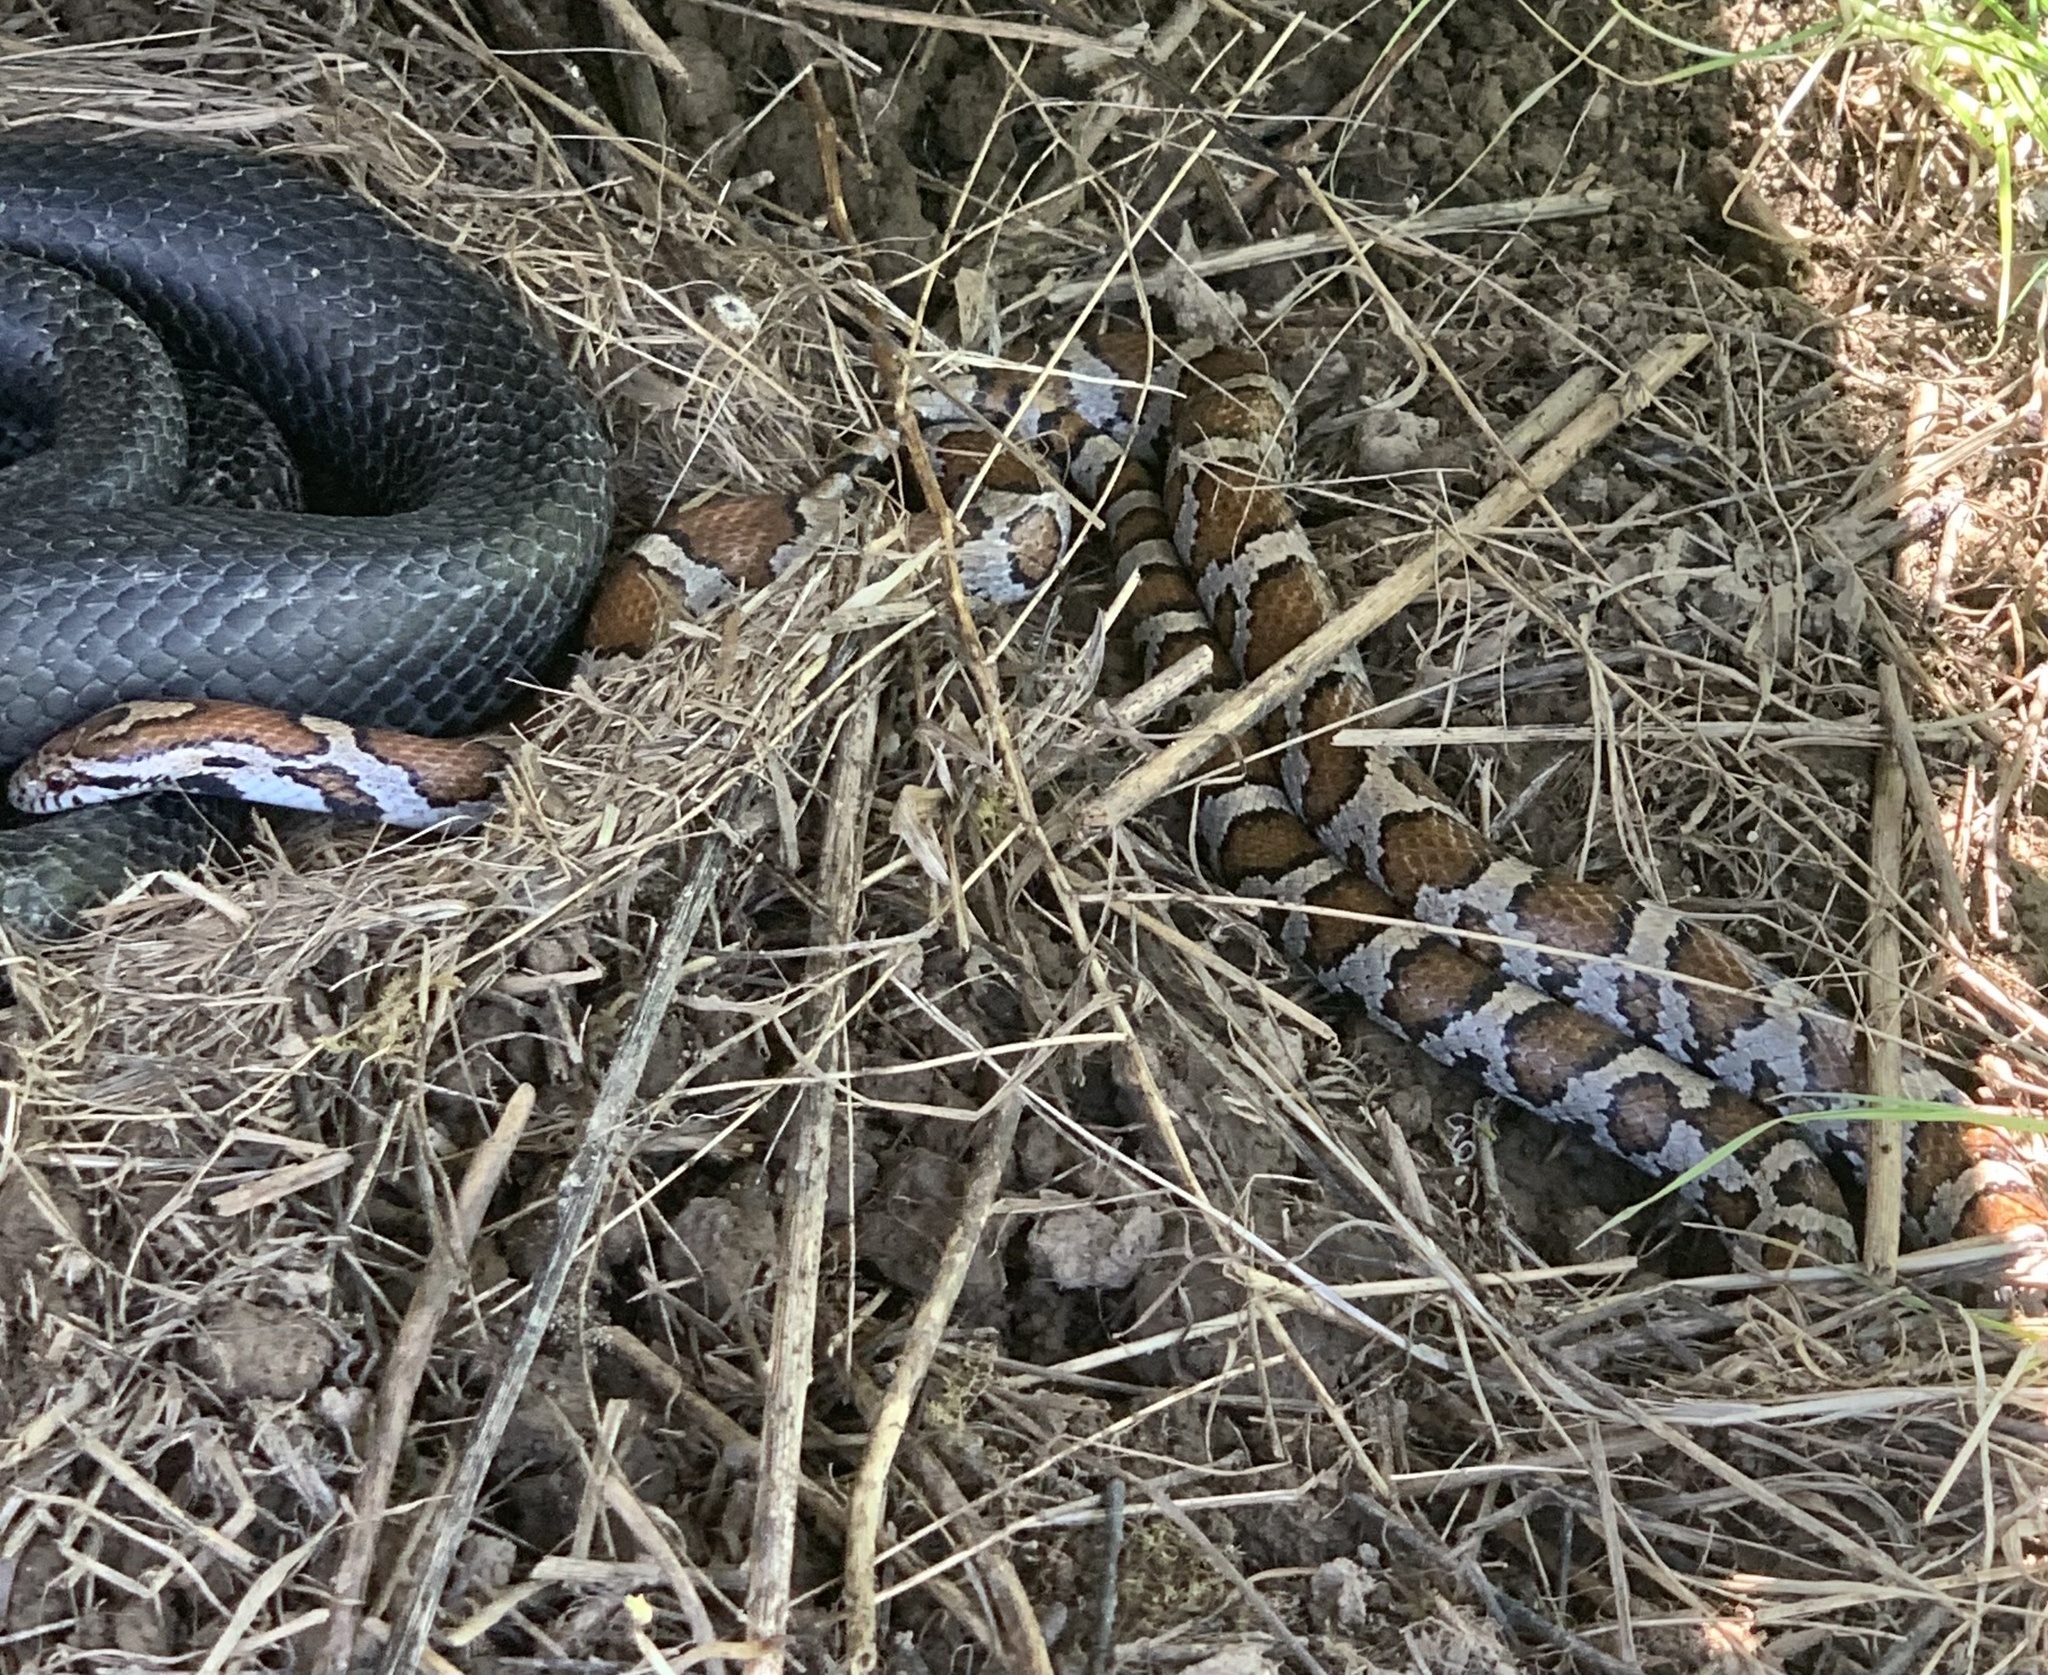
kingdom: Animalia
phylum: Chordata
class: Squamata
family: Colubridae
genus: Lampropeltis
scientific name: Lampropeltis triangulum
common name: Eastern milksnake
